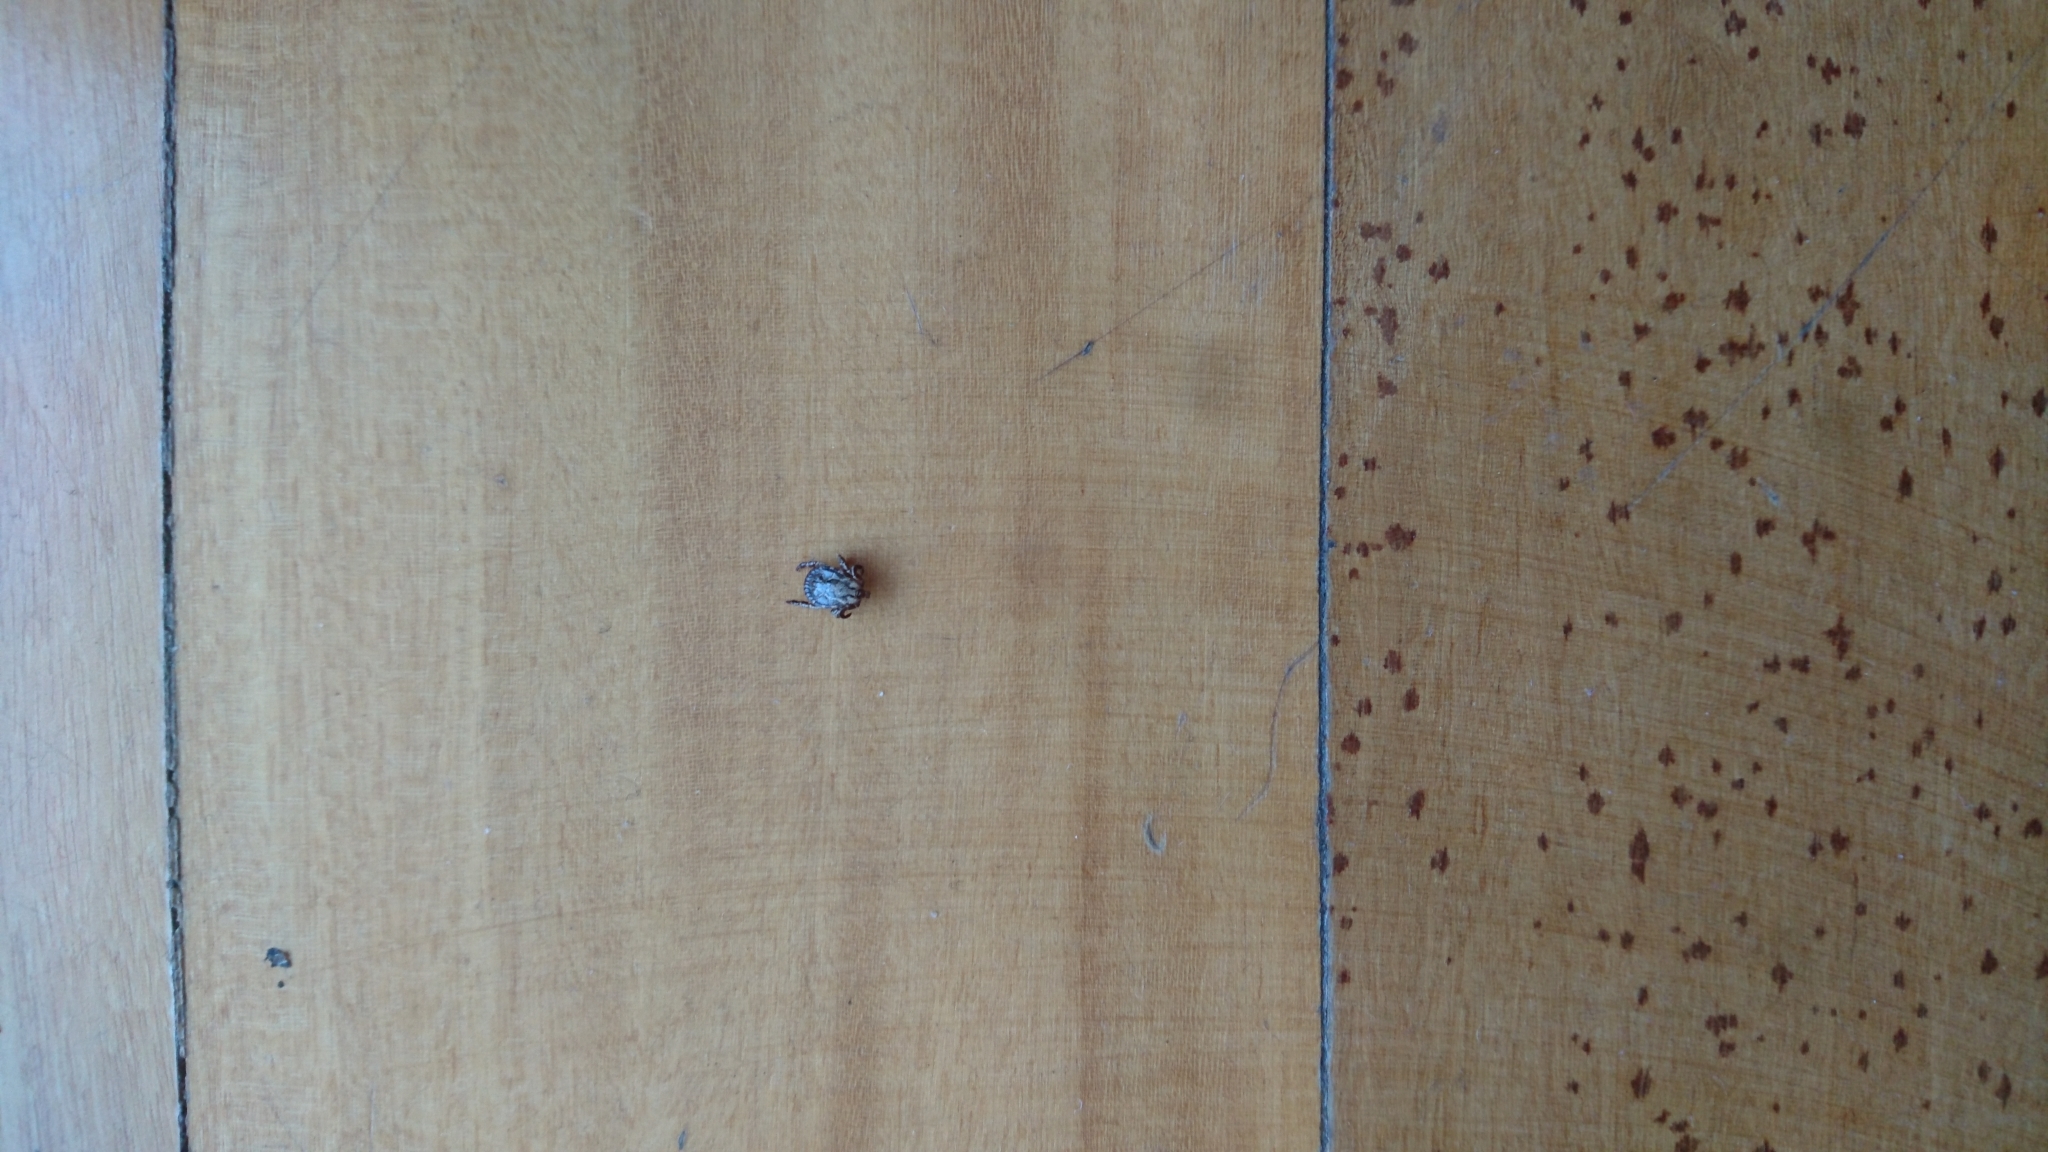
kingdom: Animalia
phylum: Arthropoda
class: Arachnida
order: Ixodida
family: Ixodidae
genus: Dermacentor
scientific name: Dermacentor
